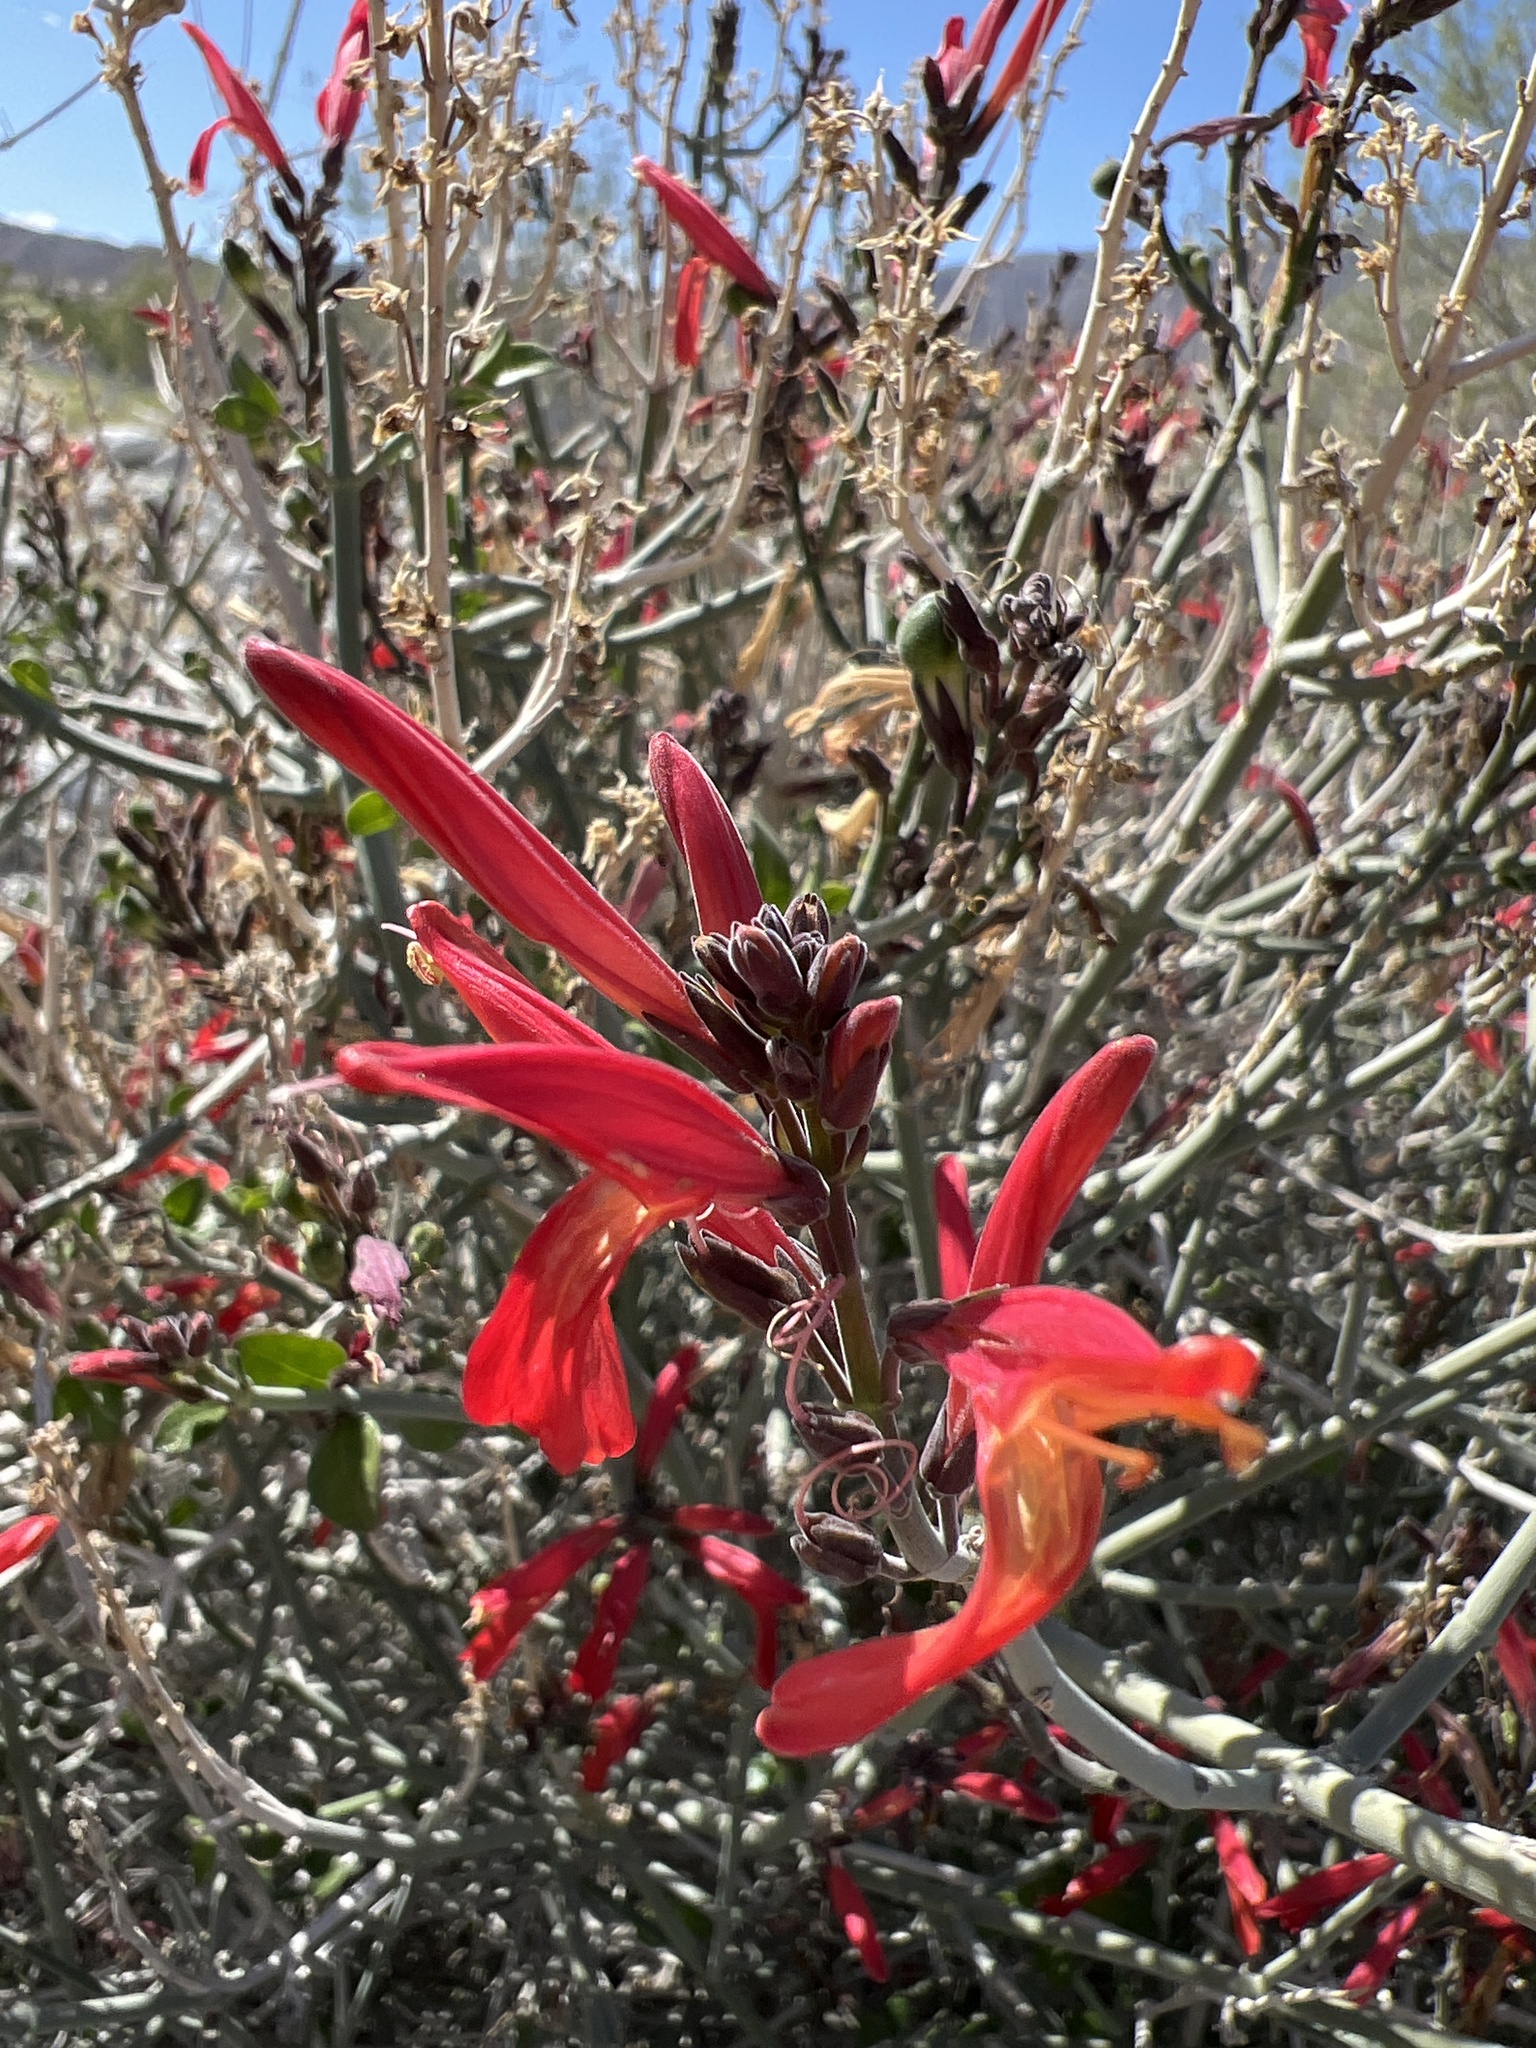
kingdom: Plantae
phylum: Tracheophyta
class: Magnoliopsida
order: Lamiales
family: Acanthaceae
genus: Justicia
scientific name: Justicia californica
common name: Chuparosa-honeysuckle
